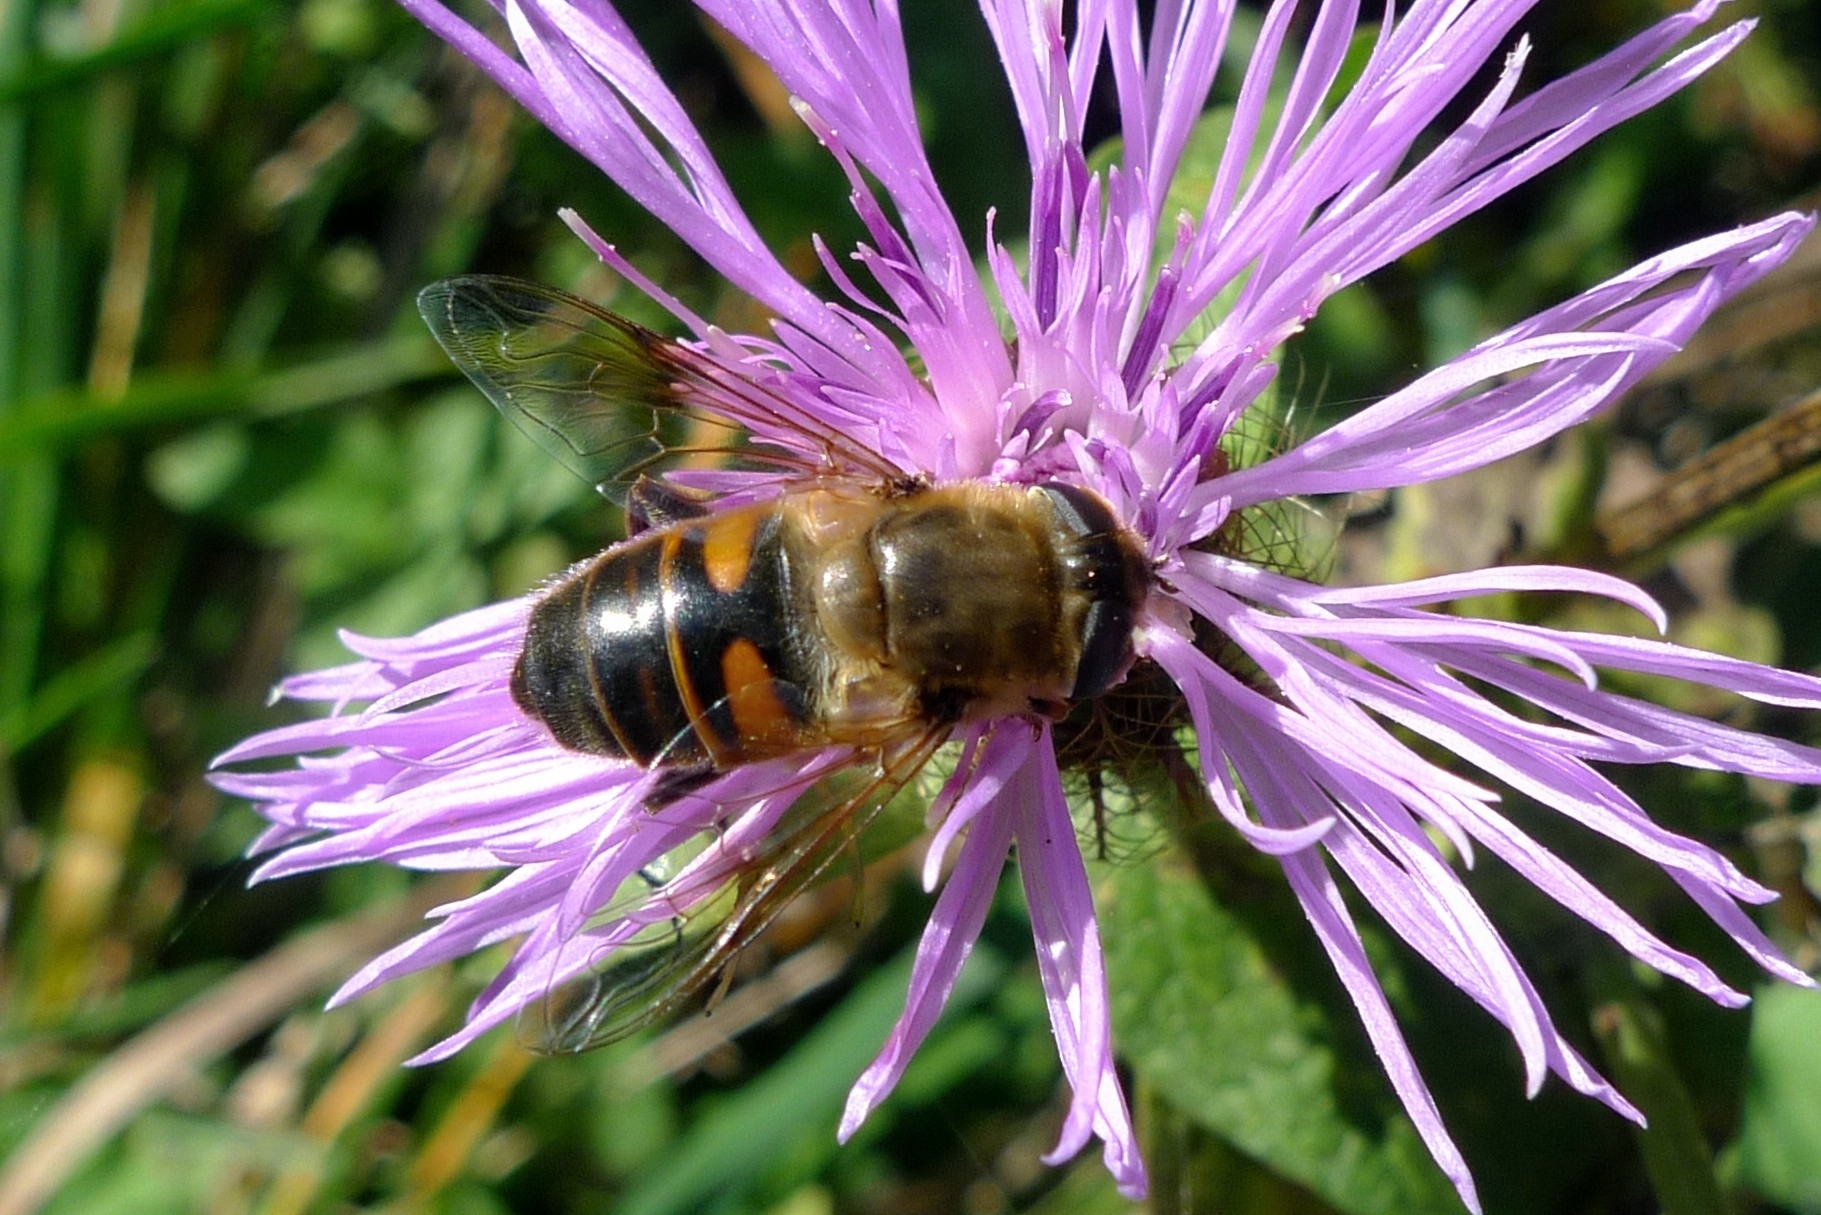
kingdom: Animalia
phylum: Arthropoda
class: Insecta
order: Diptera
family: Syrphidae
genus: Eristalis
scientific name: Eristalis tenax
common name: Drone fly
